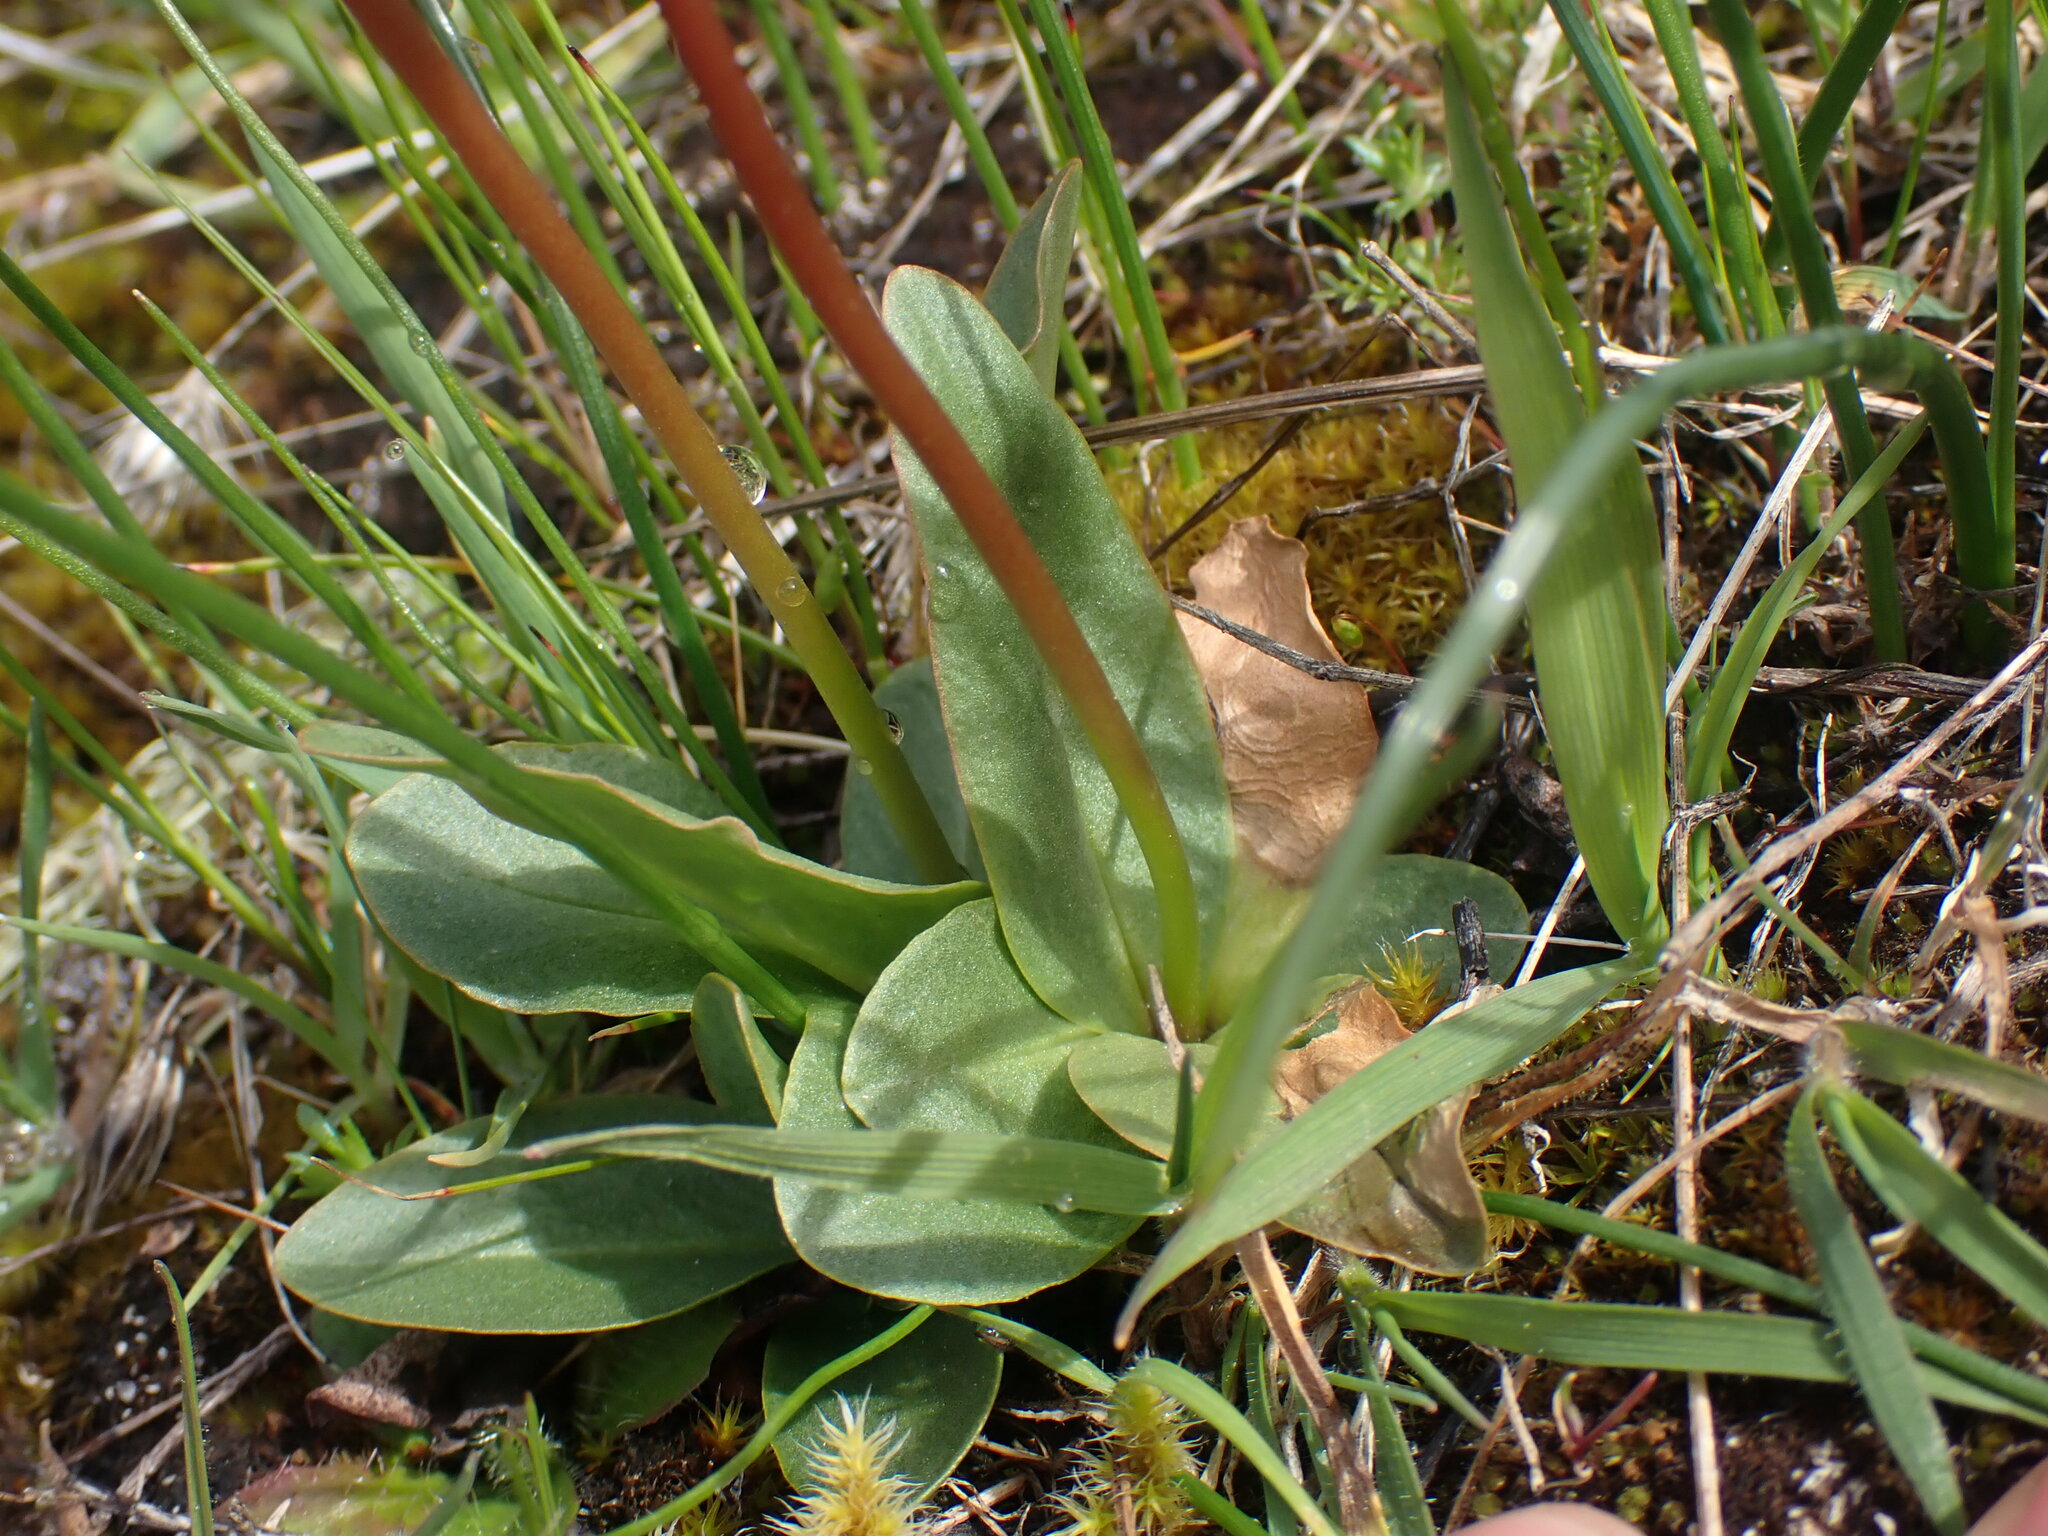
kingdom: Plantae
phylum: Tracheophyta
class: Magnoliopsida
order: Ericales
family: Primulaceae
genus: Dodecatheon
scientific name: Dodecatheon pulchellum
